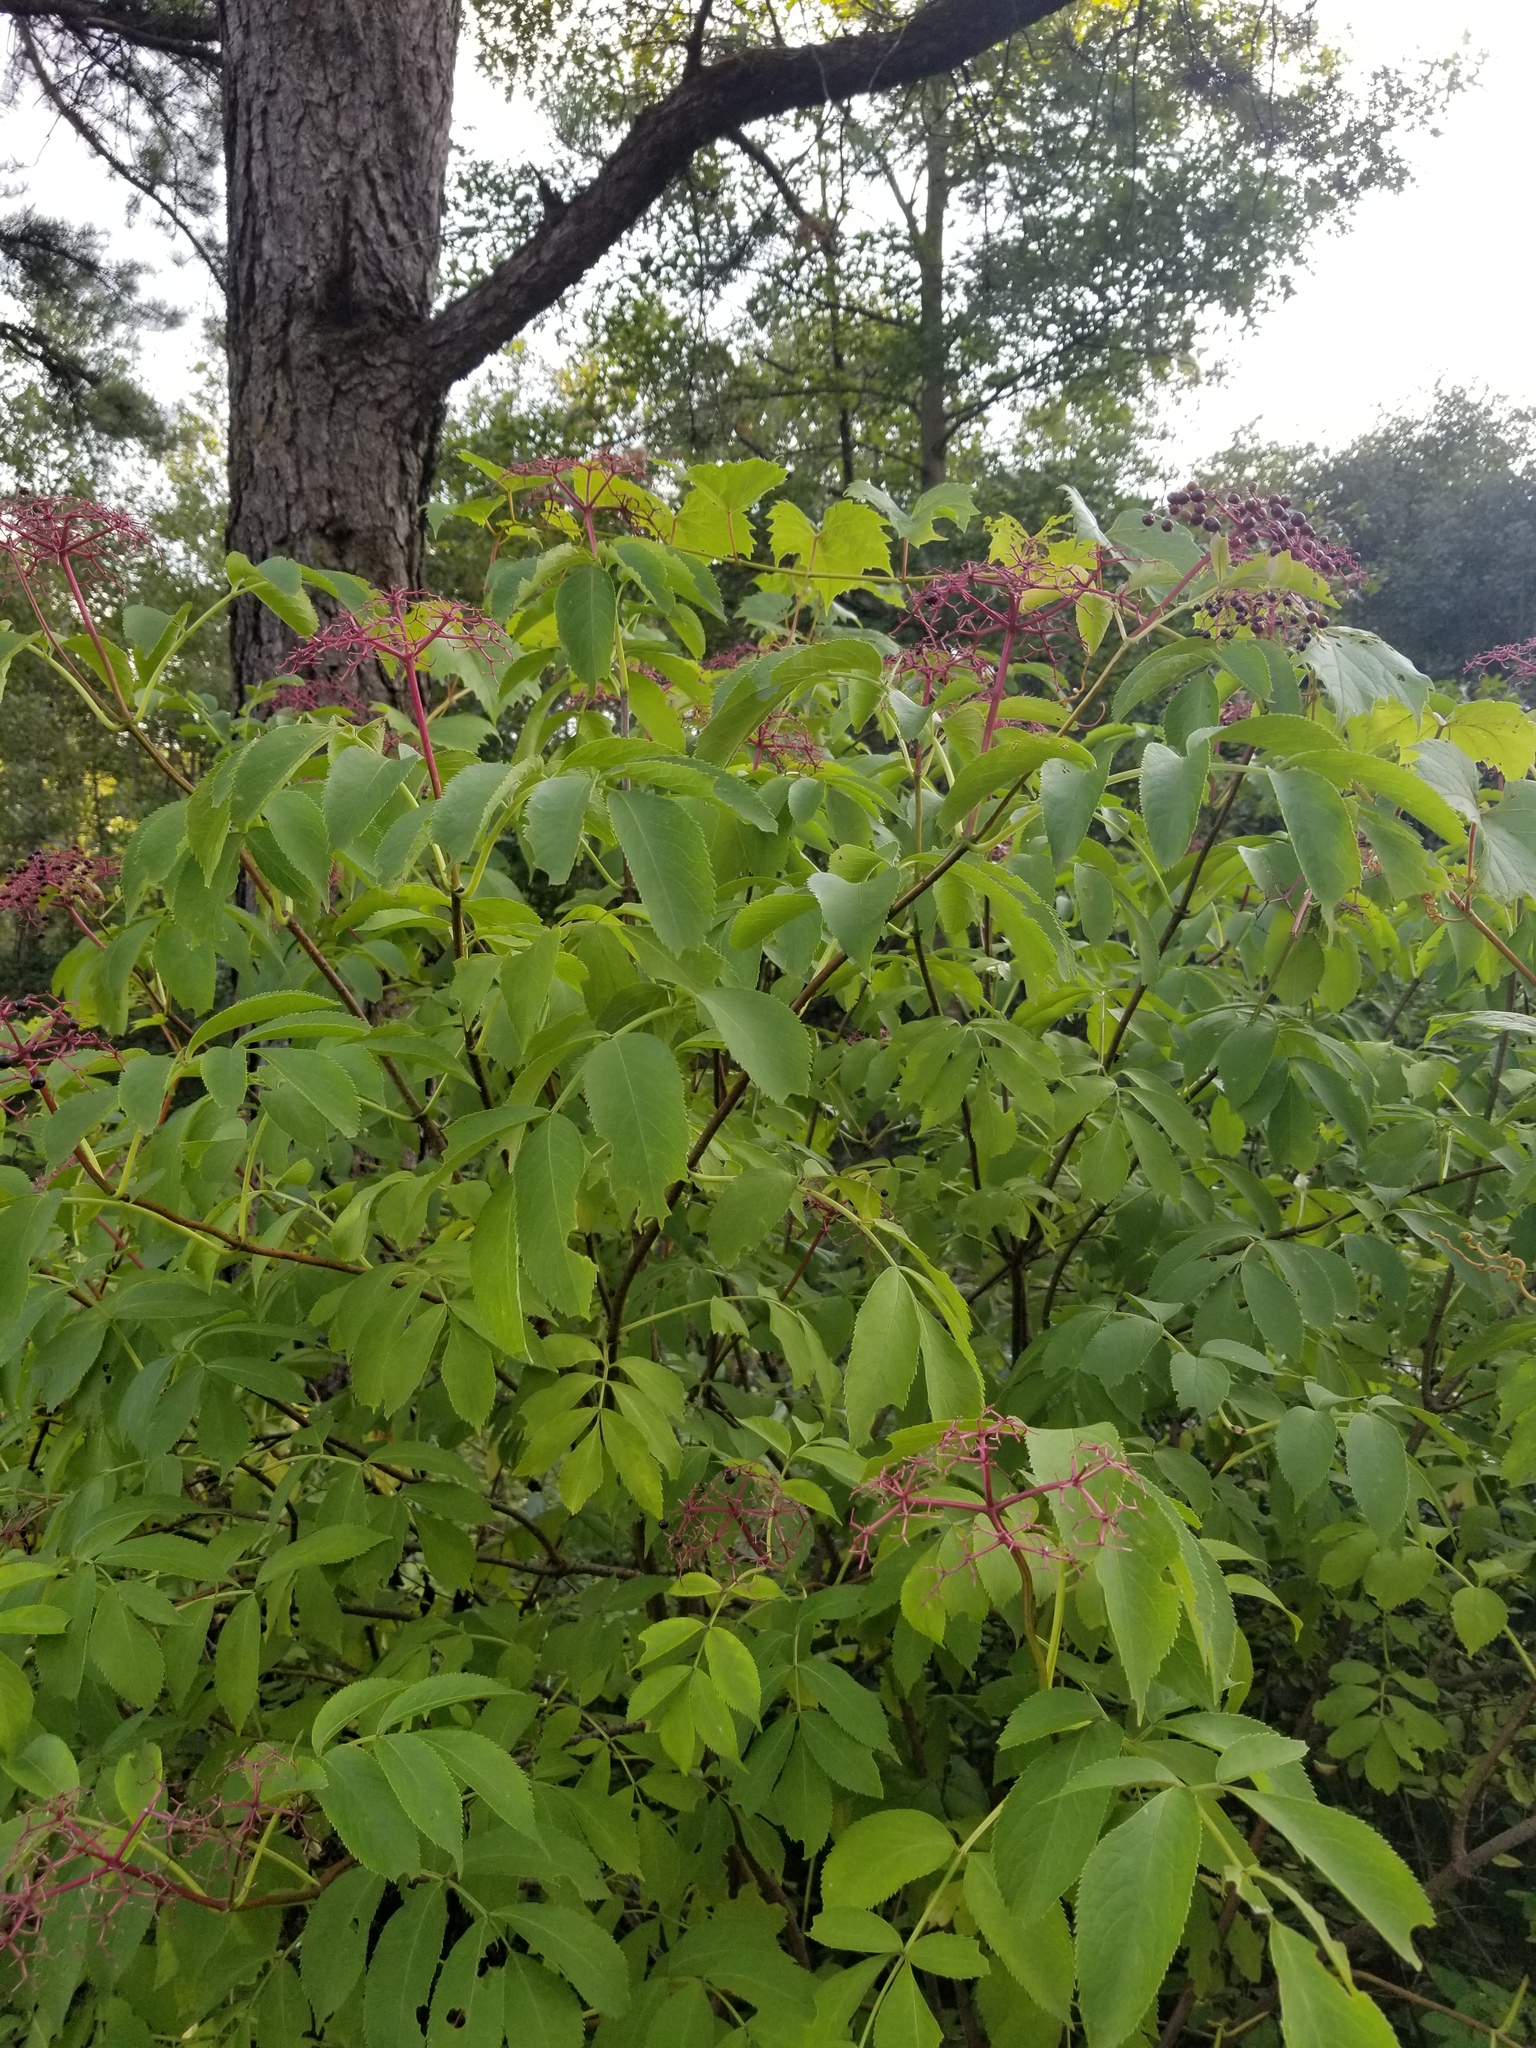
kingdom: Plantae
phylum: Tracheophyta
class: Magnoliopsida
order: Dipsacales
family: Viburnaceae
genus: Sambucus
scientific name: Sambucus canadensis
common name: American elder
